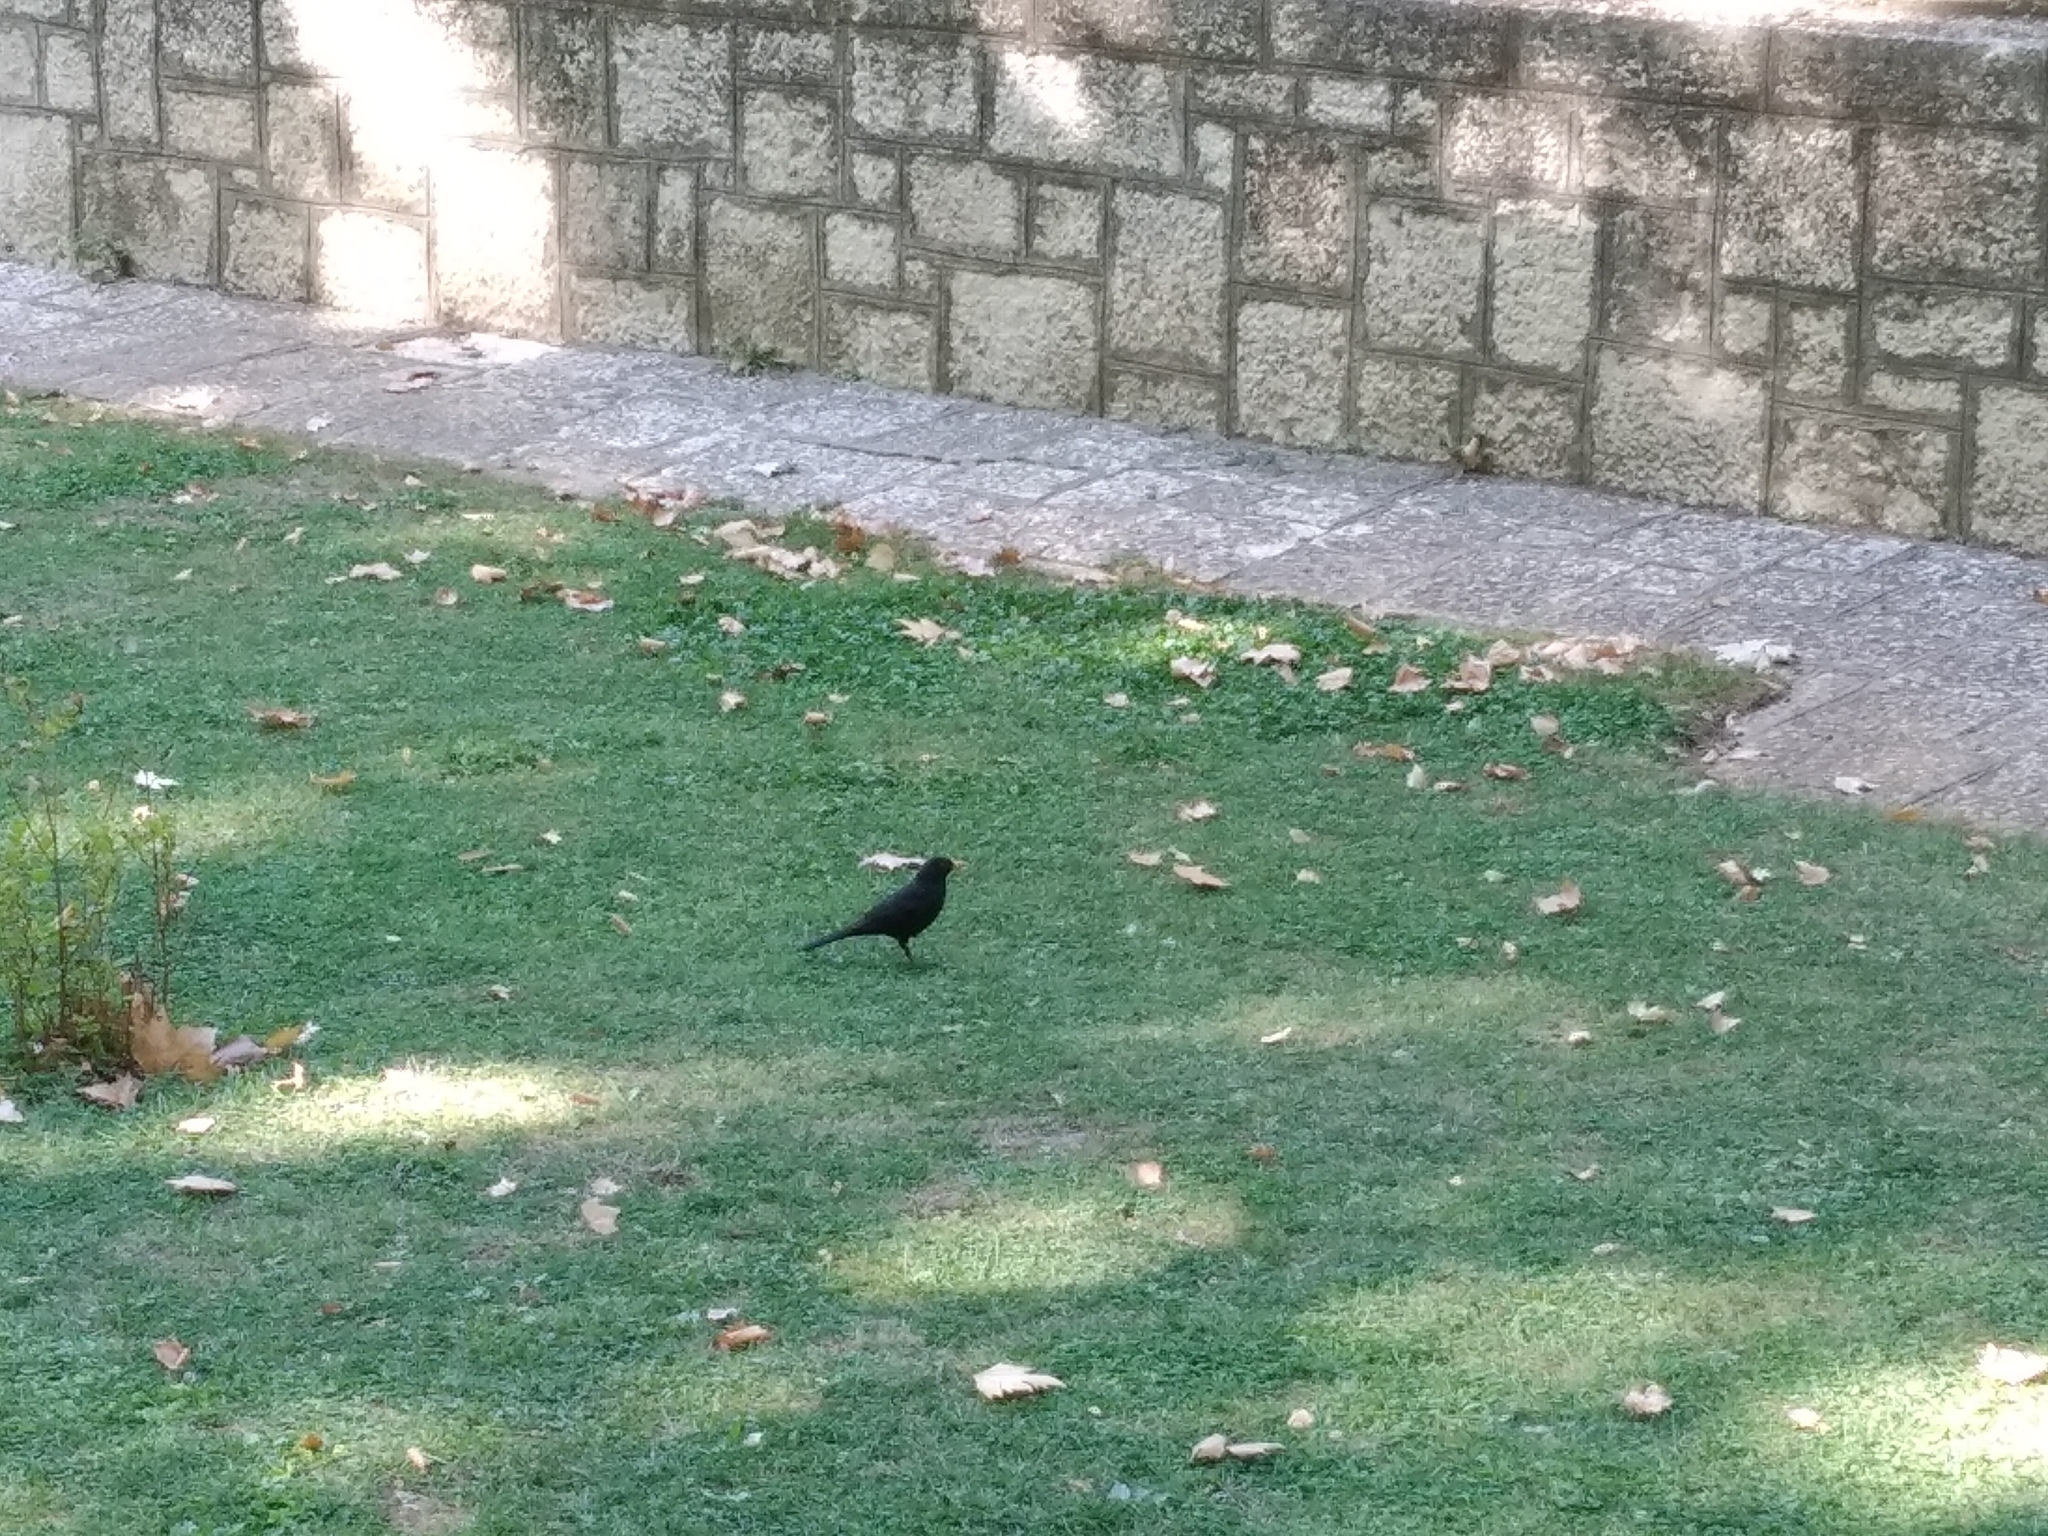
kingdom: Animalia
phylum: Chordata
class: Aves
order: Passeriformes
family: Turdidae
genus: Turdus
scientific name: Turdus merula
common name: Common blackbird
